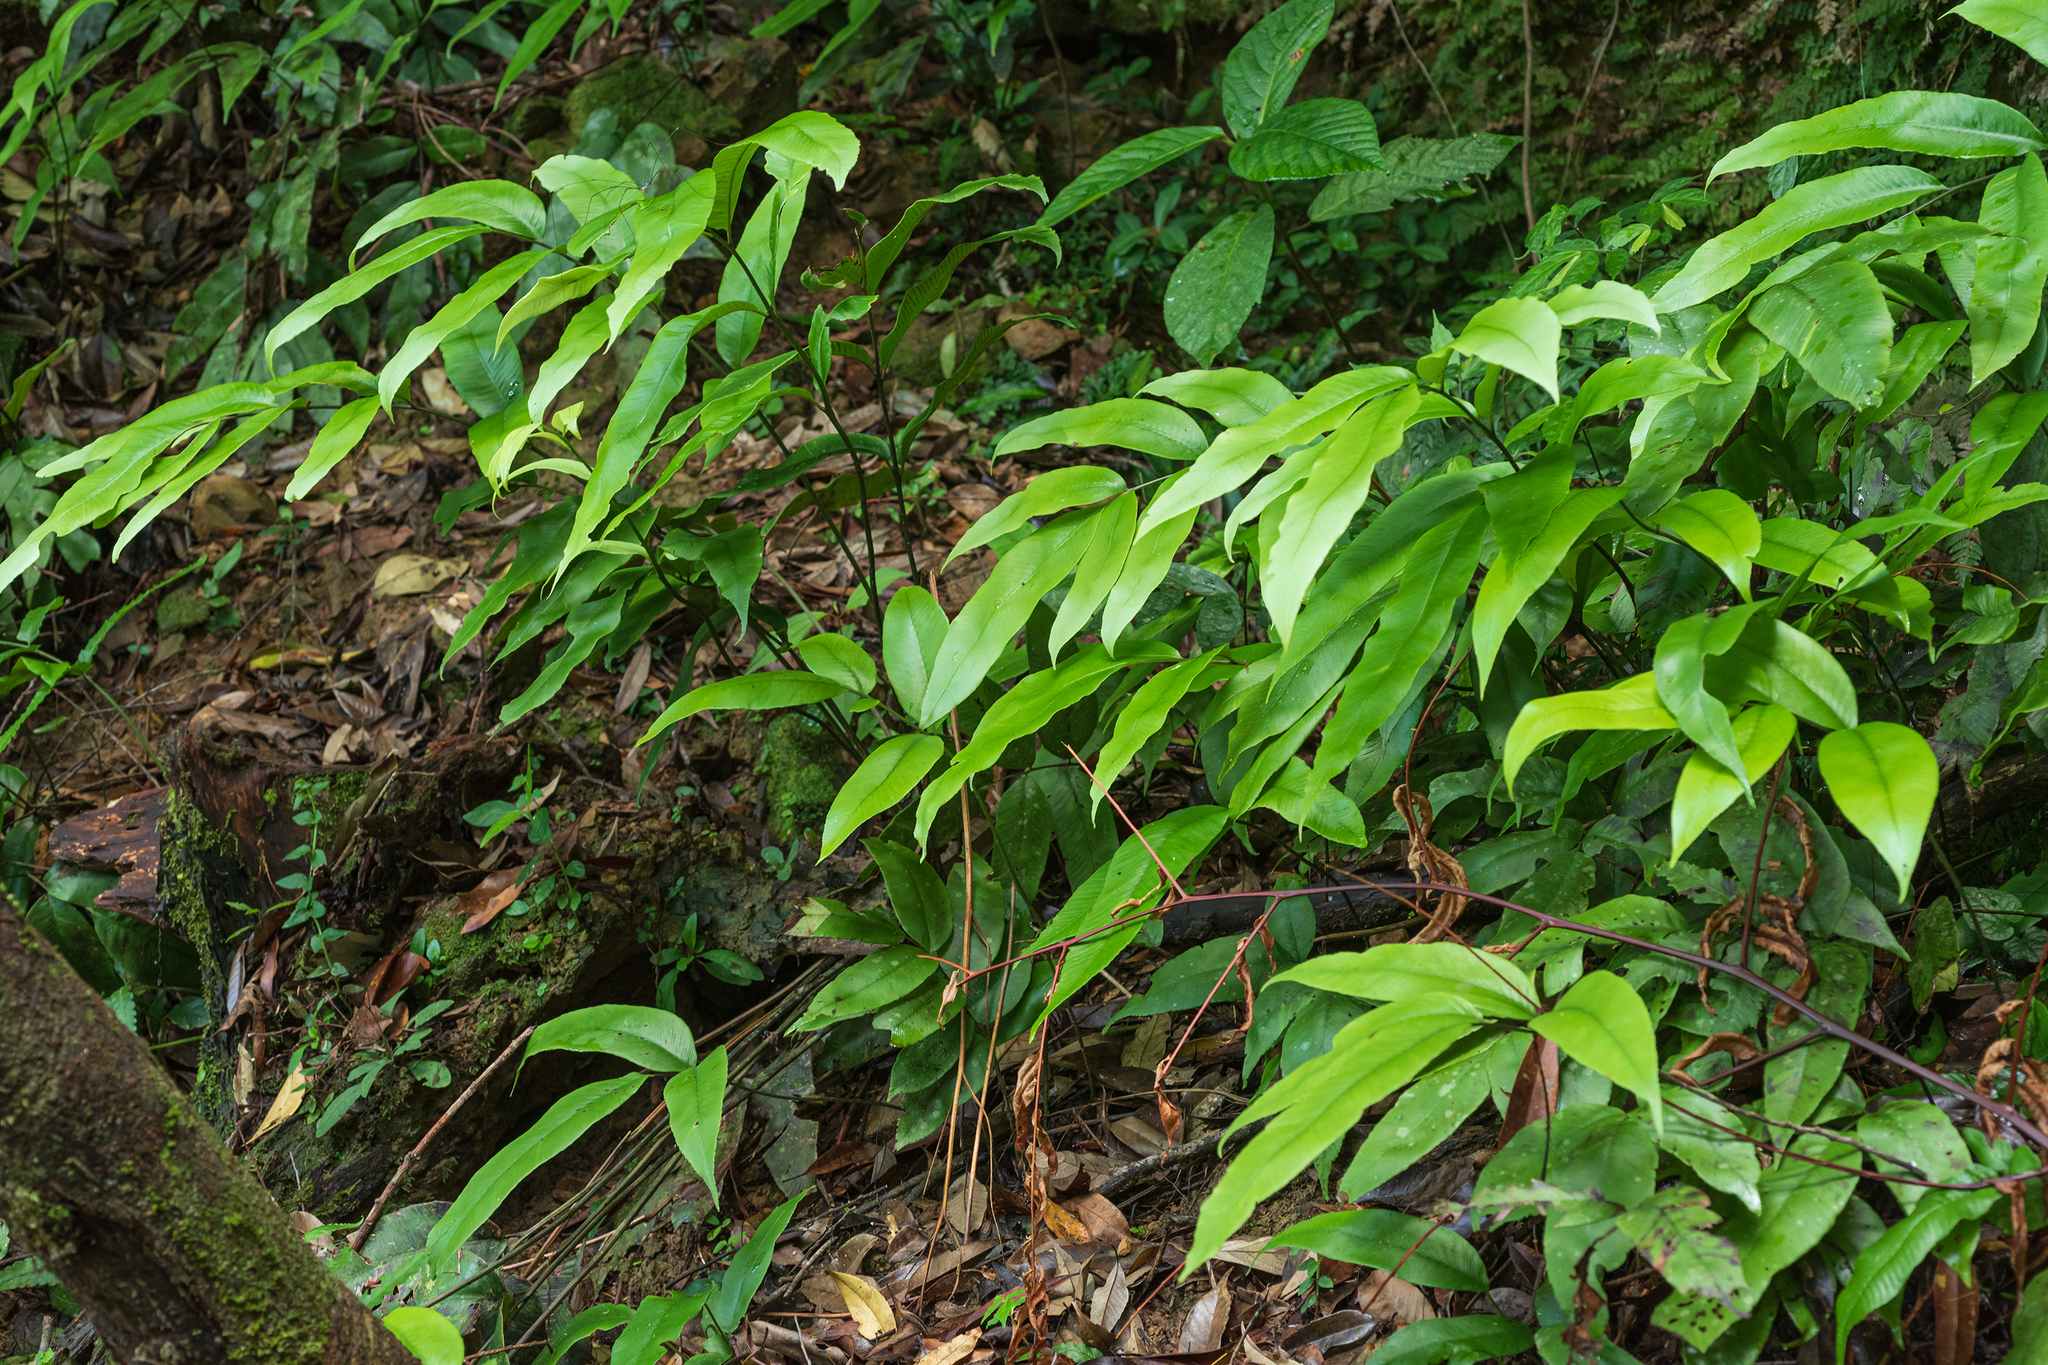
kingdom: Plantae
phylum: Tracheophyta
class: Polypodiopsida
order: Polypodiales
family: Athyriaceae
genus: Diplazium
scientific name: Diplazium lineolatum
